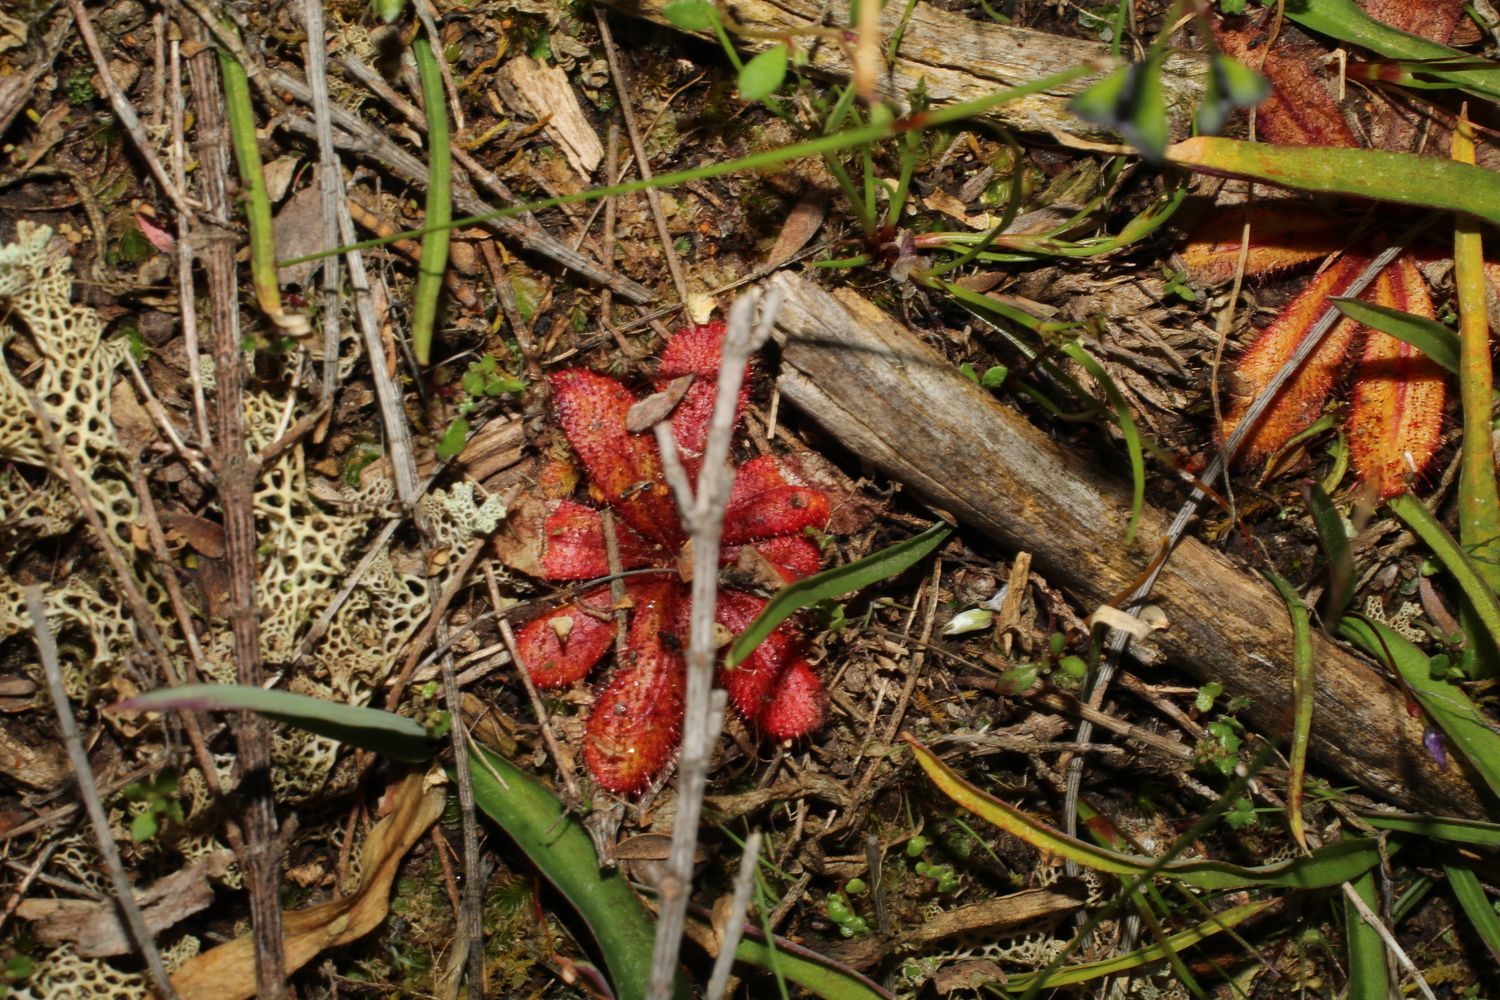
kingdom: Plantae
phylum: Tracheophyta
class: Magnoliopsida
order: Caryophyllales
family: Droseraceae
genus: Drosera
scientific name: Drosera bulbosa
